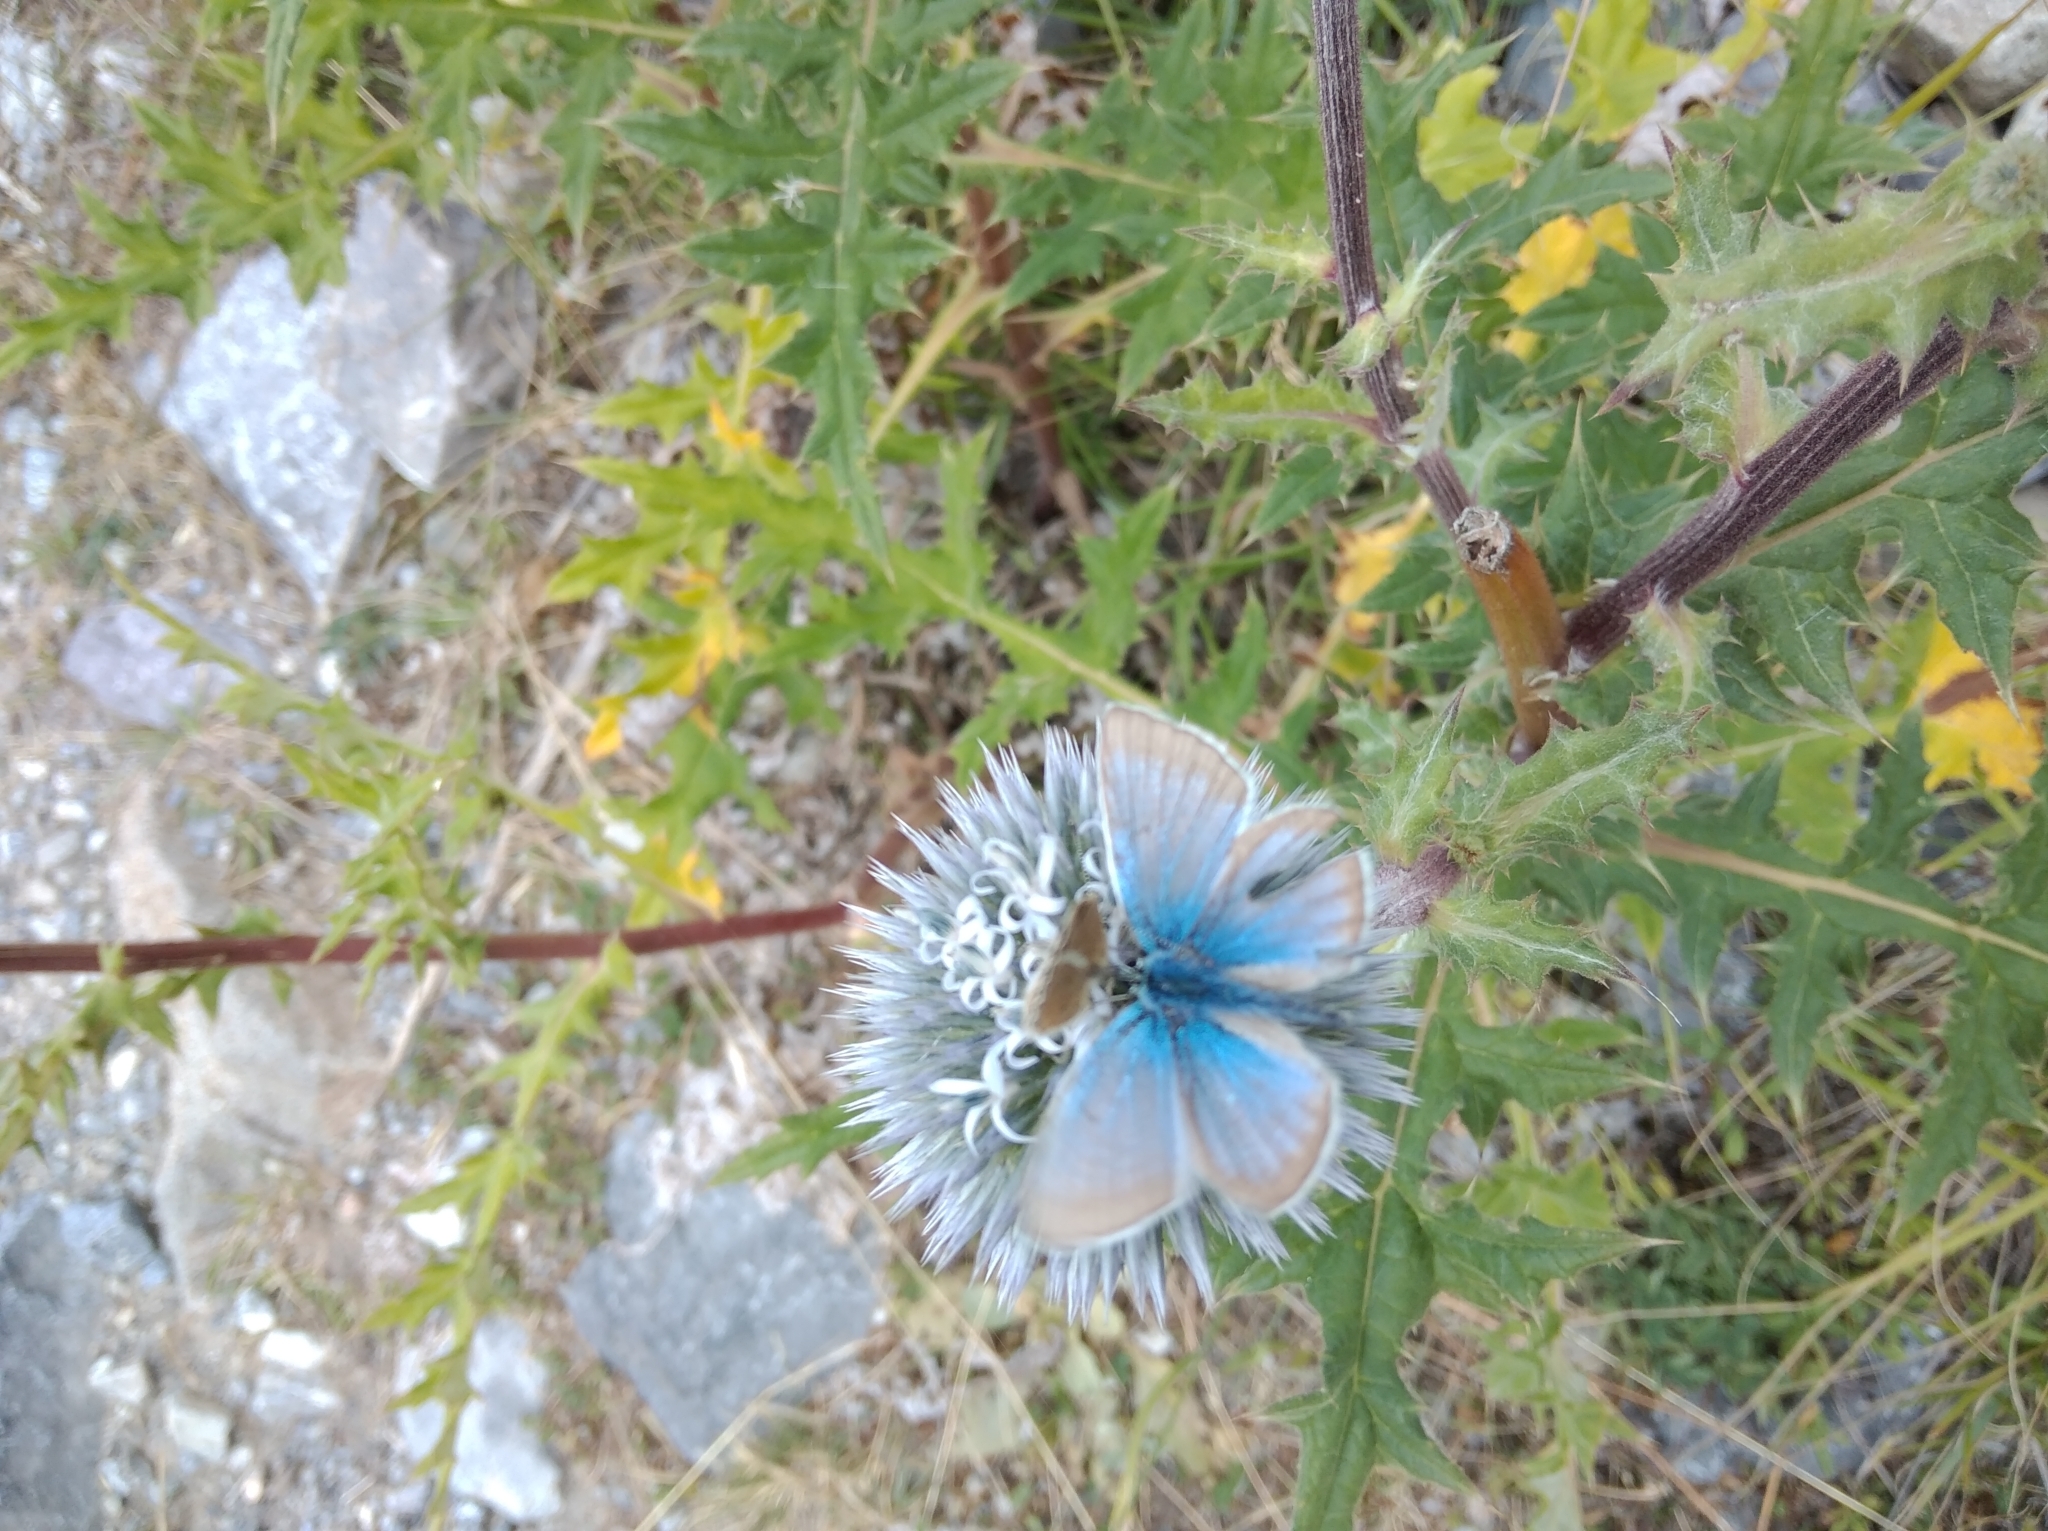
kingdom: Animalia
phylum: Arthropoda
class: Insecta
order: Lepidoptera
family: Lycaenidae
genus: Agrodiaetus
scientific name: Agrodiaetus damon
